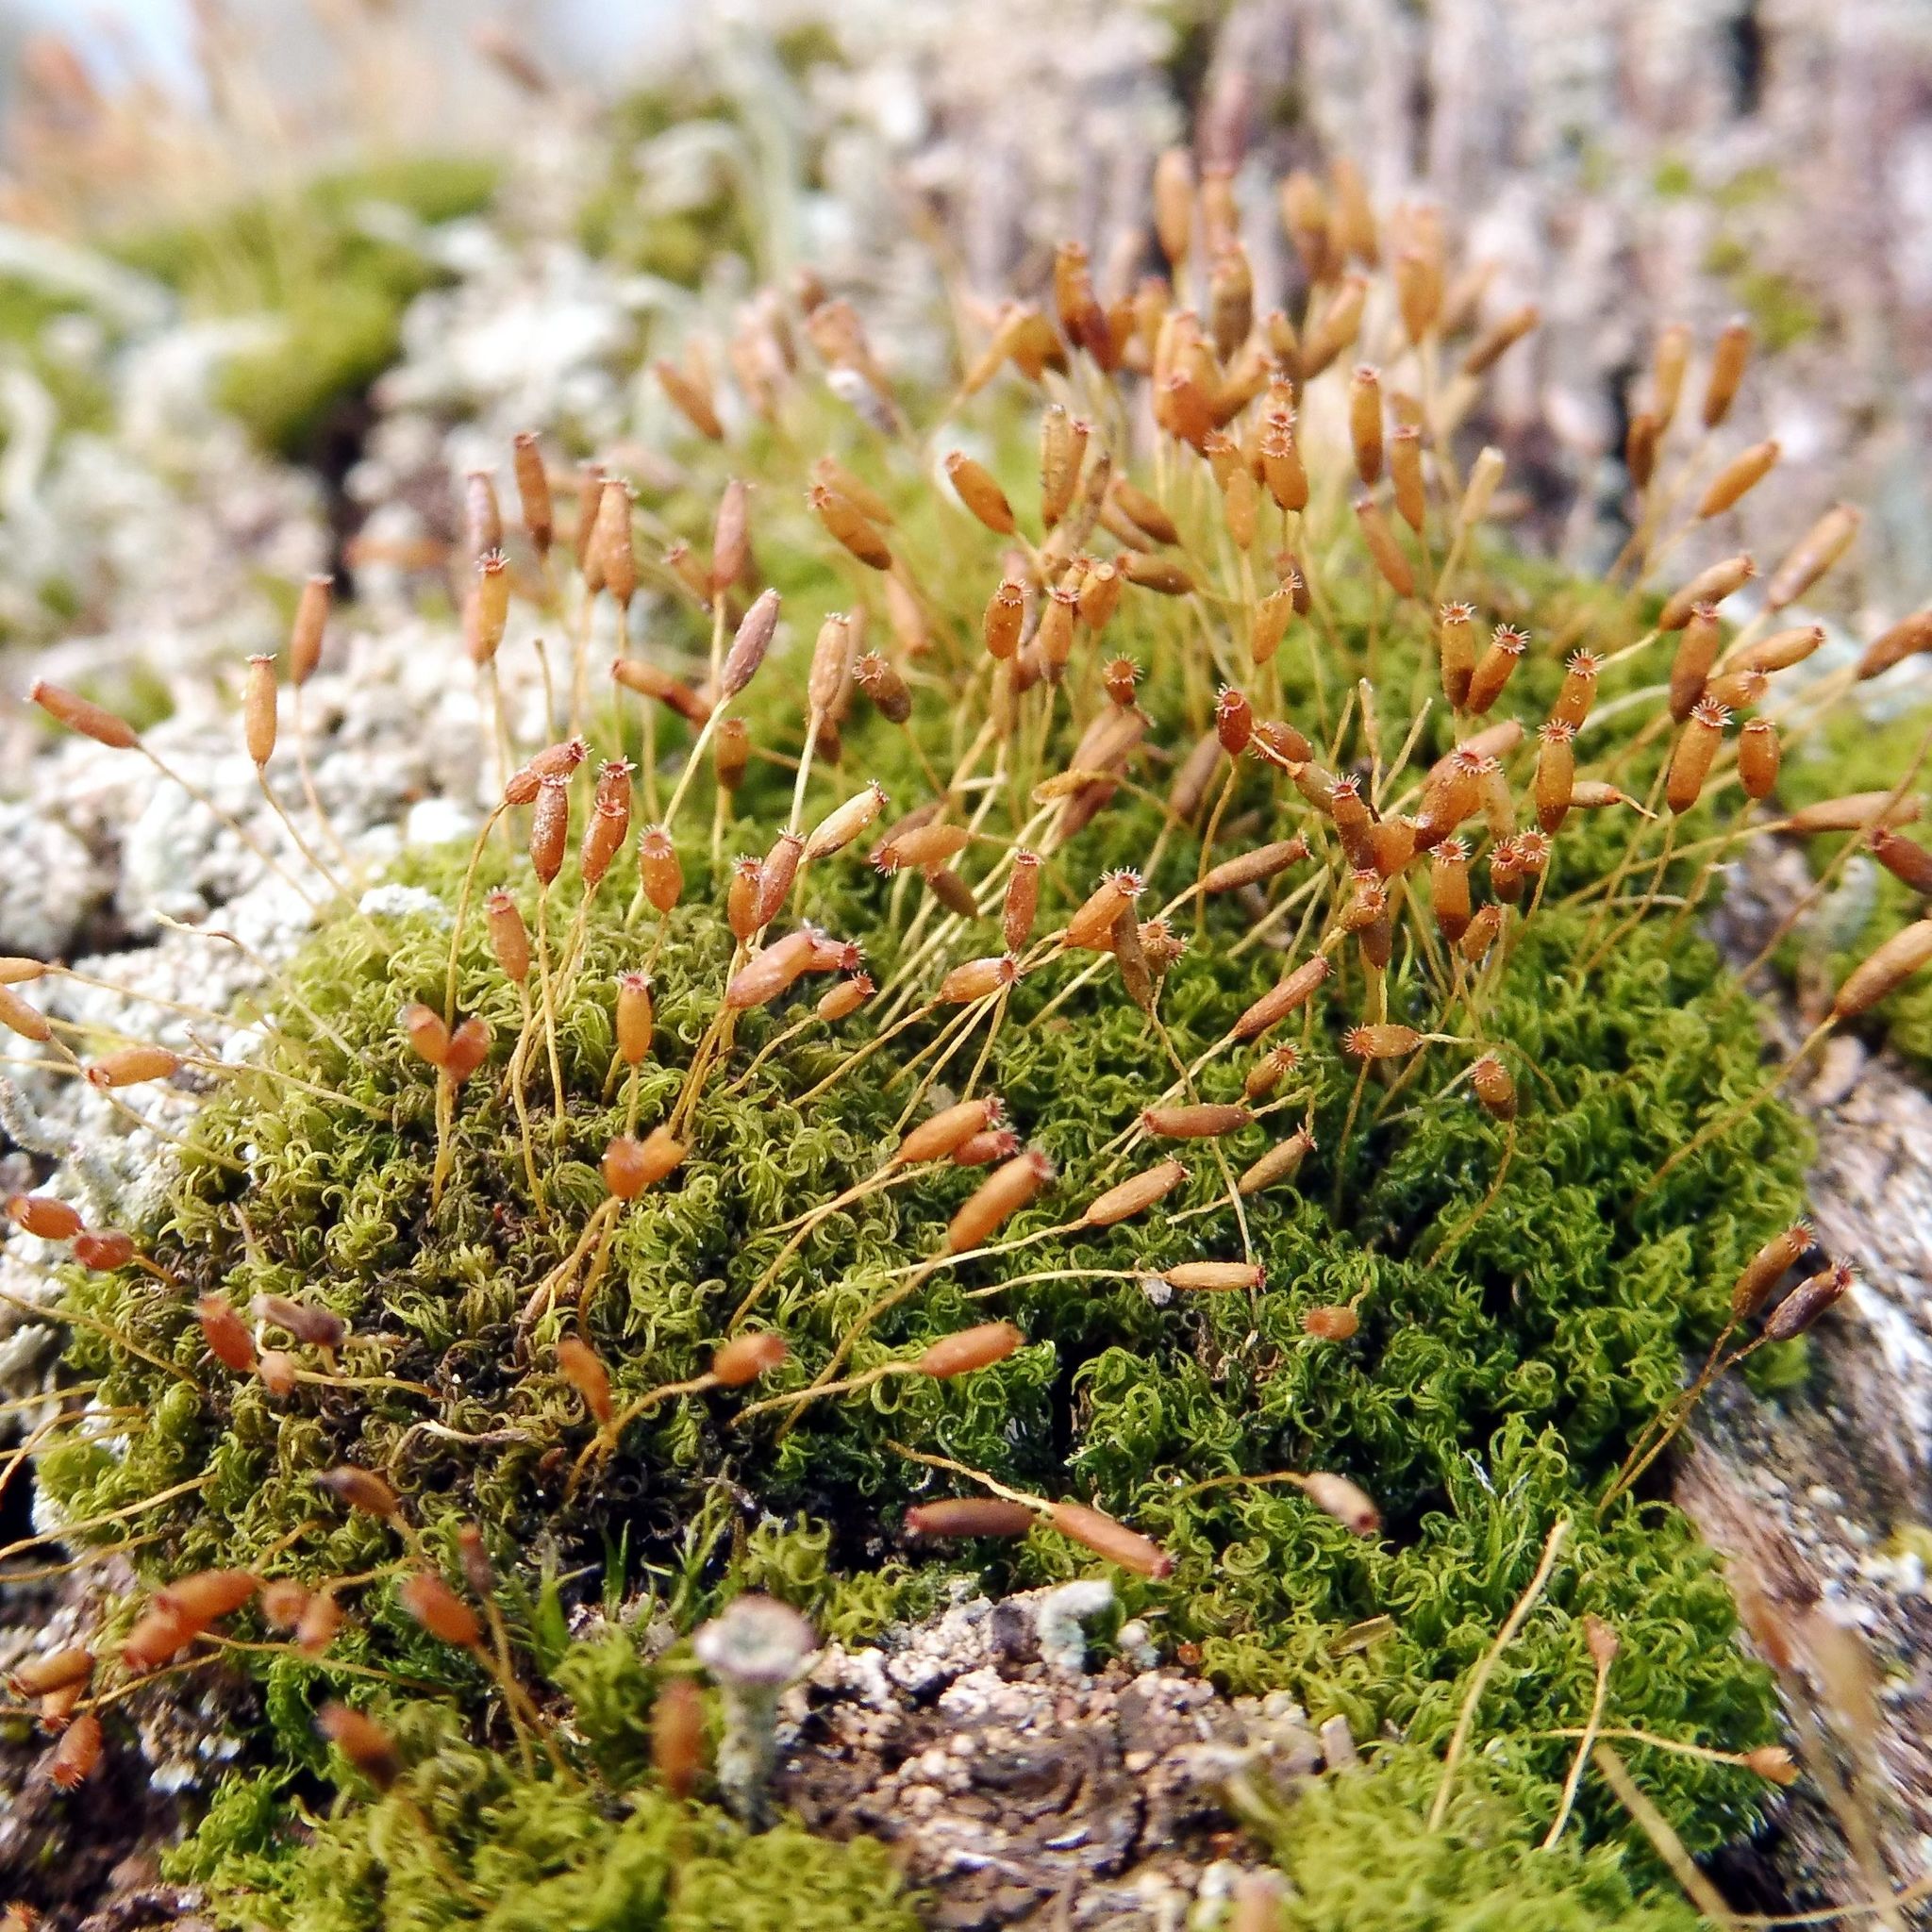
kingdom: Plantae
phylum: Bryophyta
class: Bryopsida
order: Dicranales
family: Rhabdoweisiaceae
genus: Dicranoweisia
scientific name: Dicranoweisia cirrata
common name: Common pincushion
